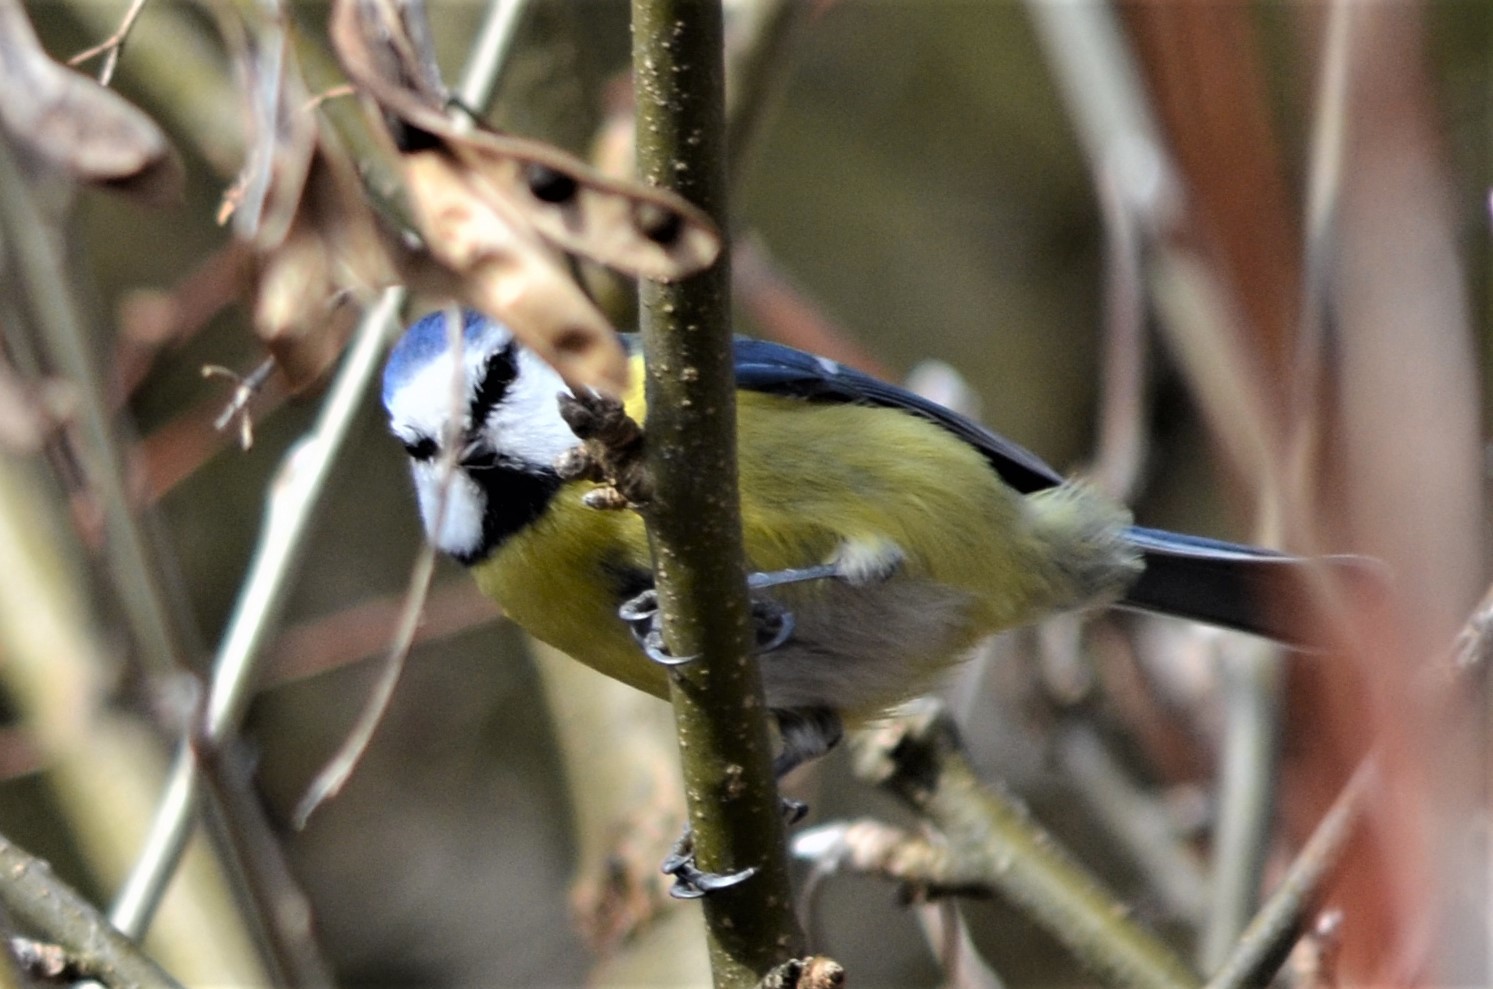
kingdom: Animalia
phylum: Chordata
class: Aves
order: Passeriformes
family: Paridae
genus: Cyanistes
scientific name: Cyanistes caeruleus
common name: Eurasian blue tit
